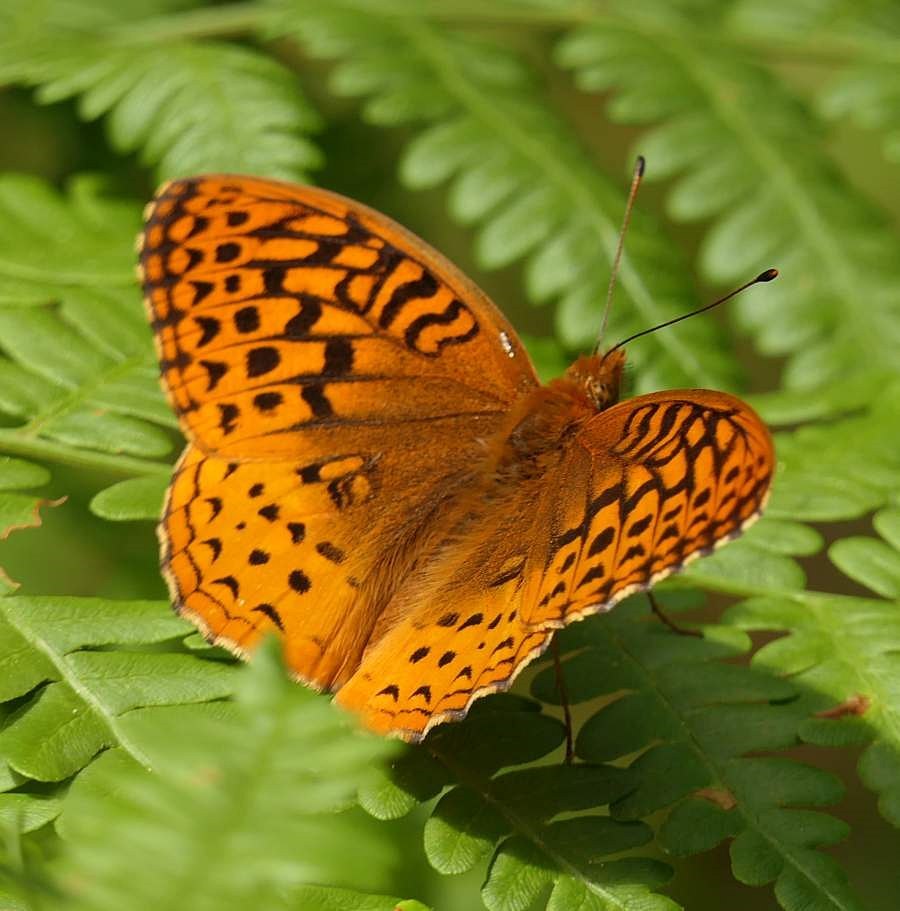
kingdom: Animalia
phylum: Arthropoda
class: Insecta
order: Lepidoptera
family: Nymphalidae
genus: Speyeria
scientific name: Speyeria cybele
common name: Great spangled fritillary
